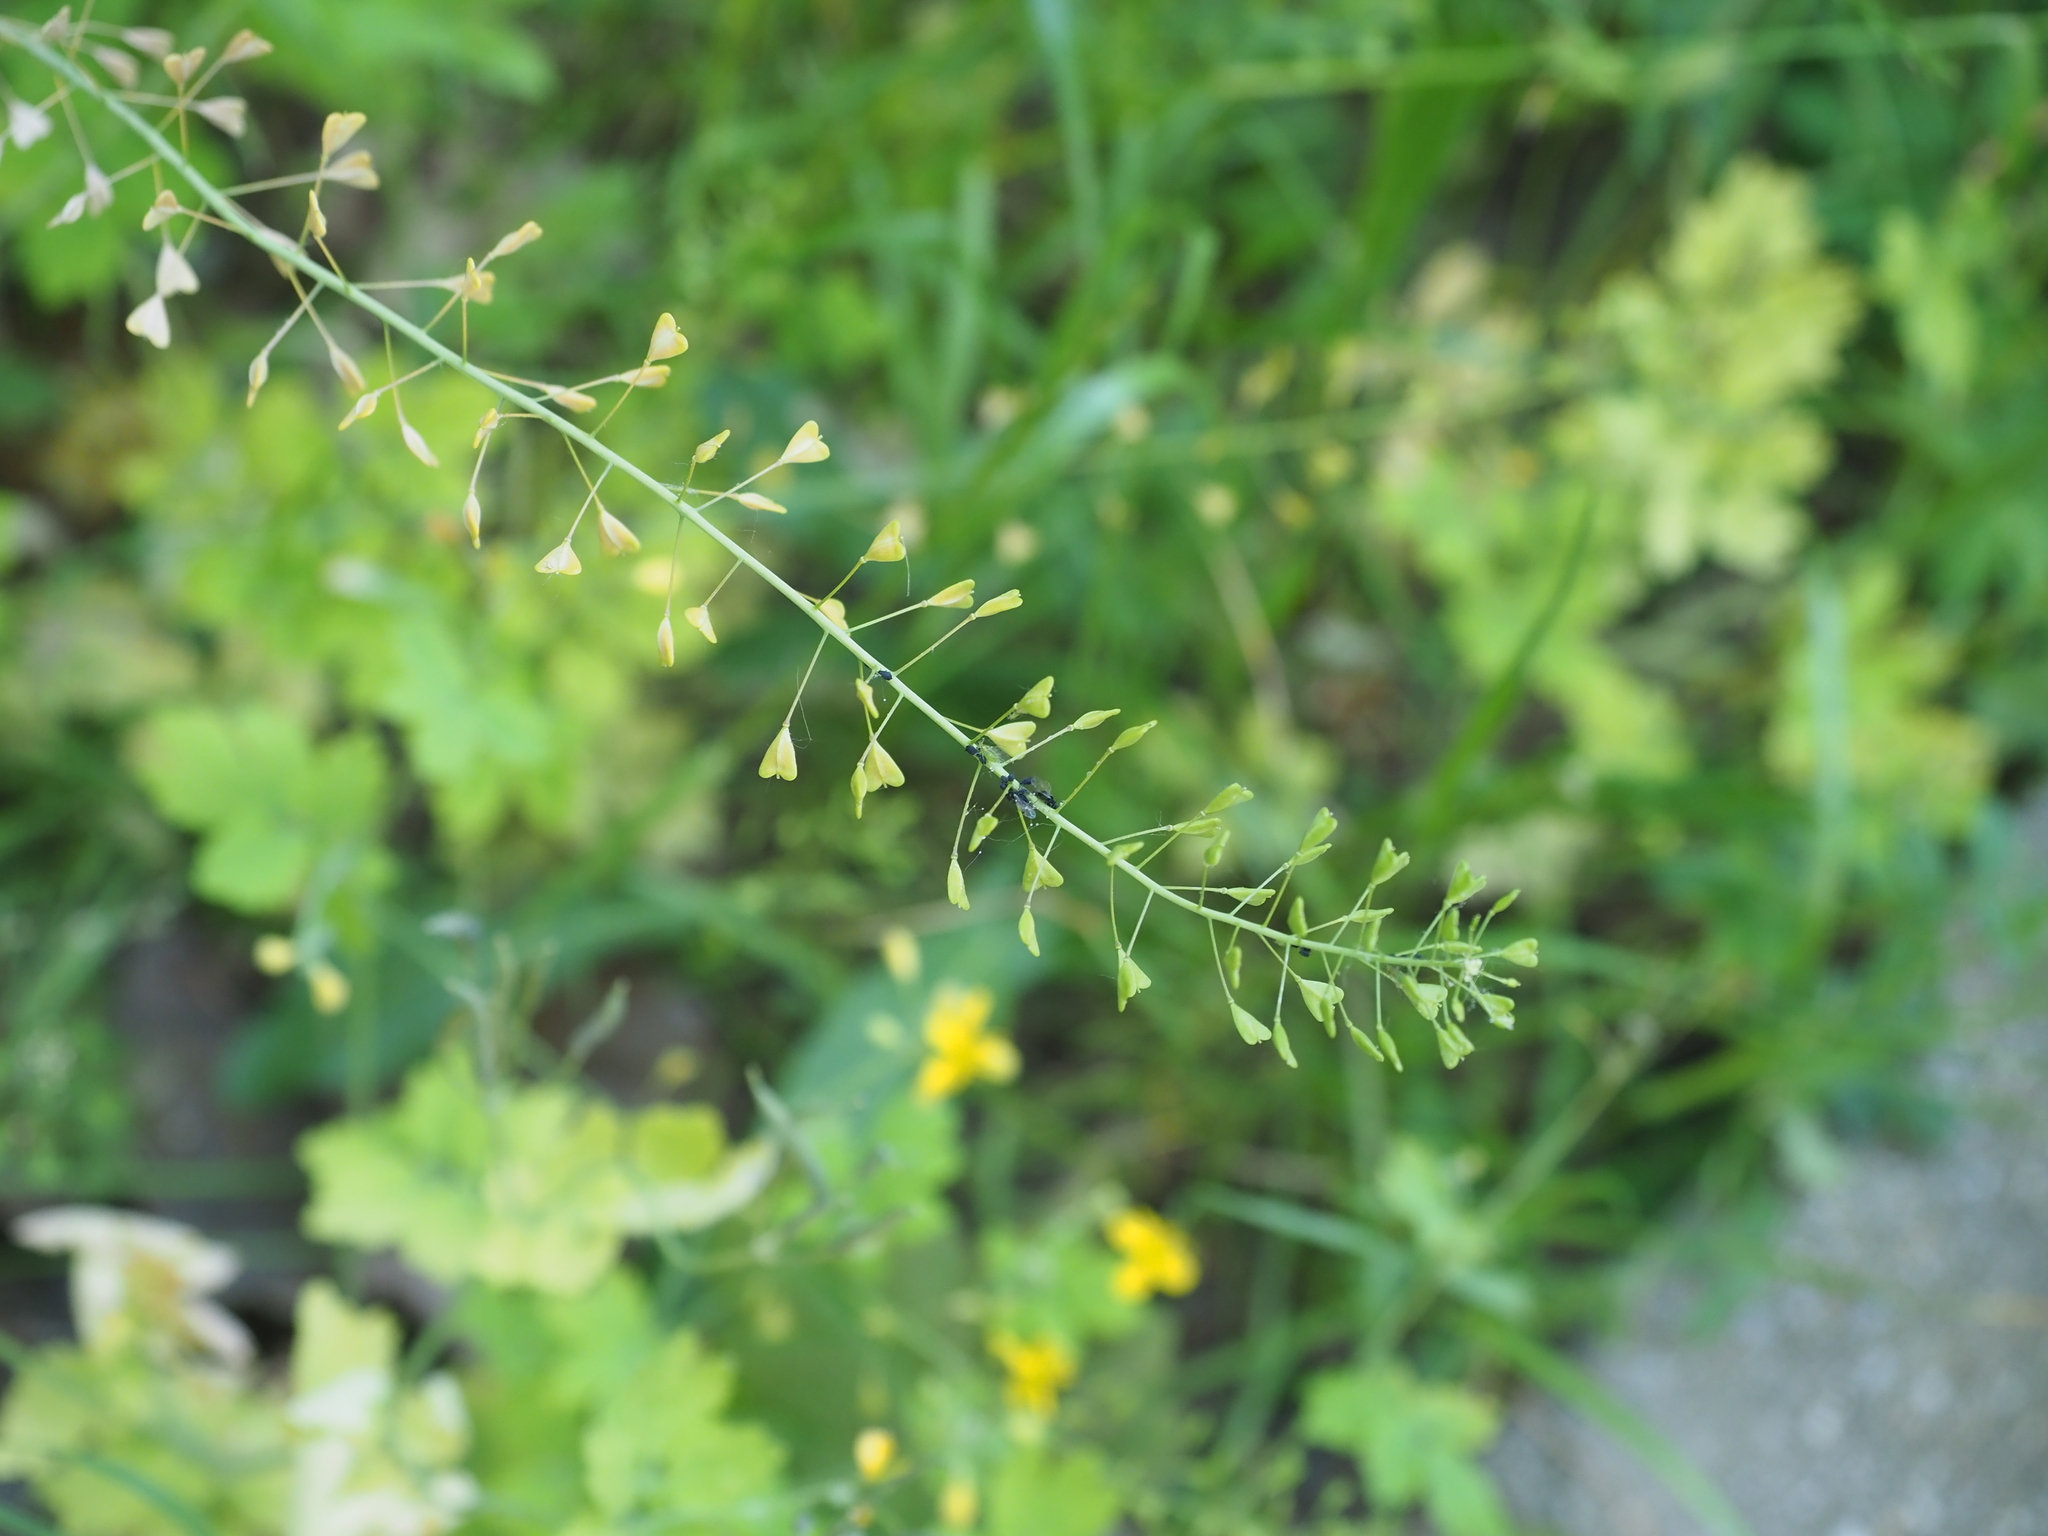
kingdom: Plantae
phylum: Tracheophyta
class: Magnoliopsida
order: Brassicales
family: Brassicaceae
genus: Capsella
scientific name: Capsella bursa-pastoris
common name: Shepherd's purse
